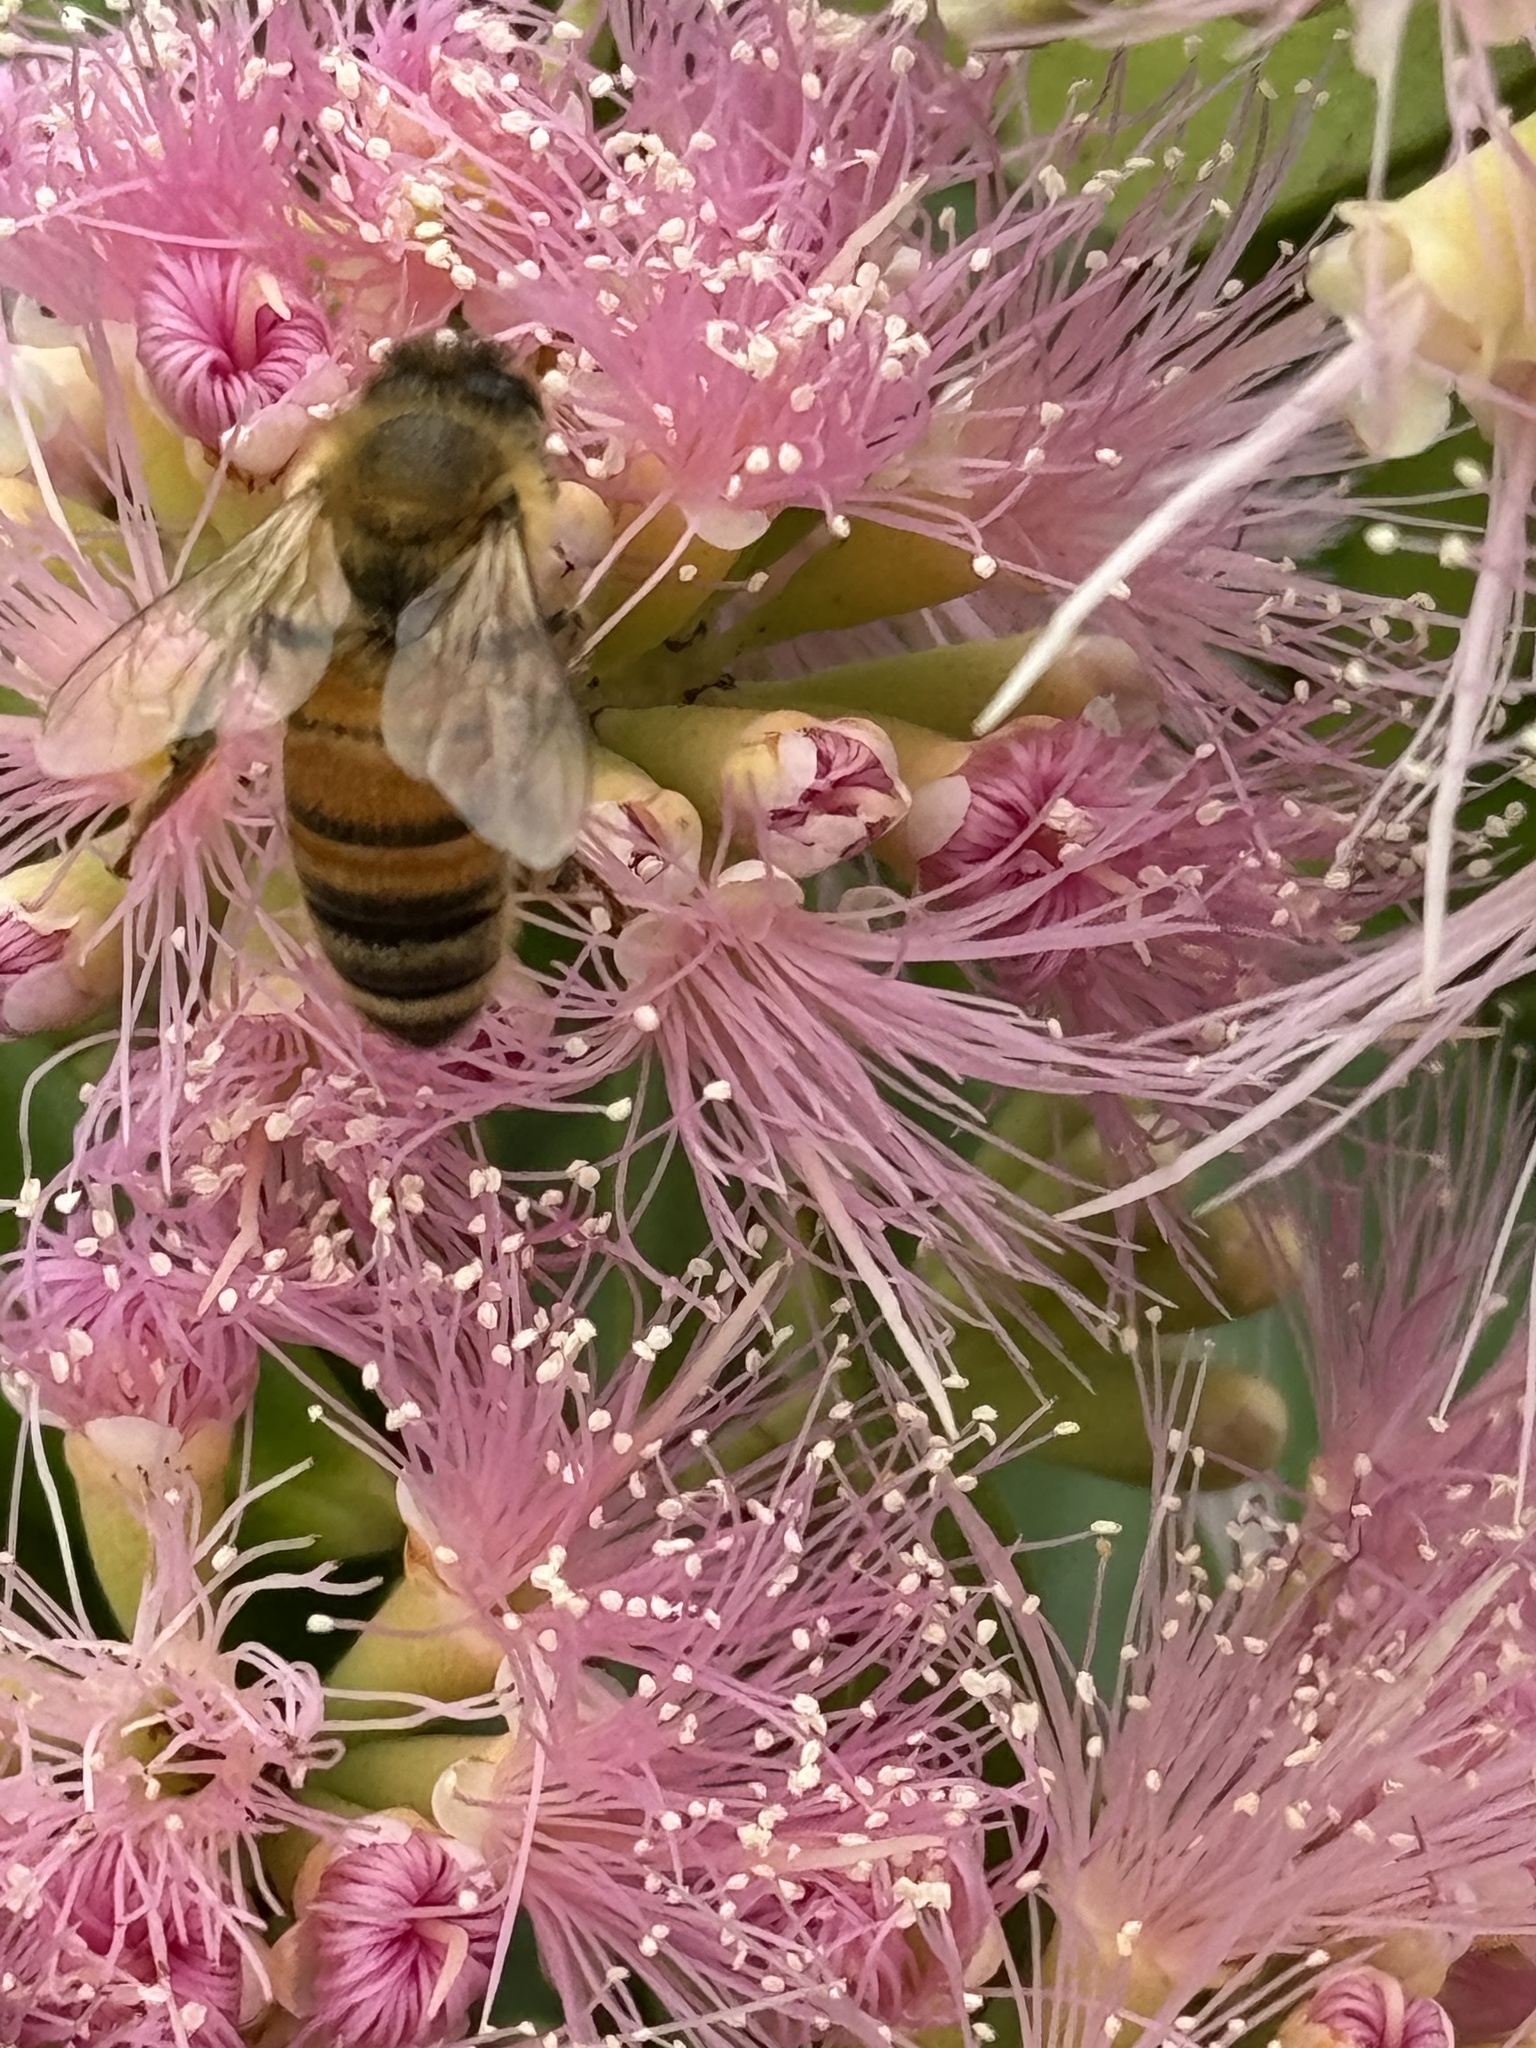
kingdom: Animalia
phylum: Arthropoda
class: Insecta
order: Hymenoptera
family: Apidae
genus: Apis
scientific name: Apis mellifera
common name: Honey bee
